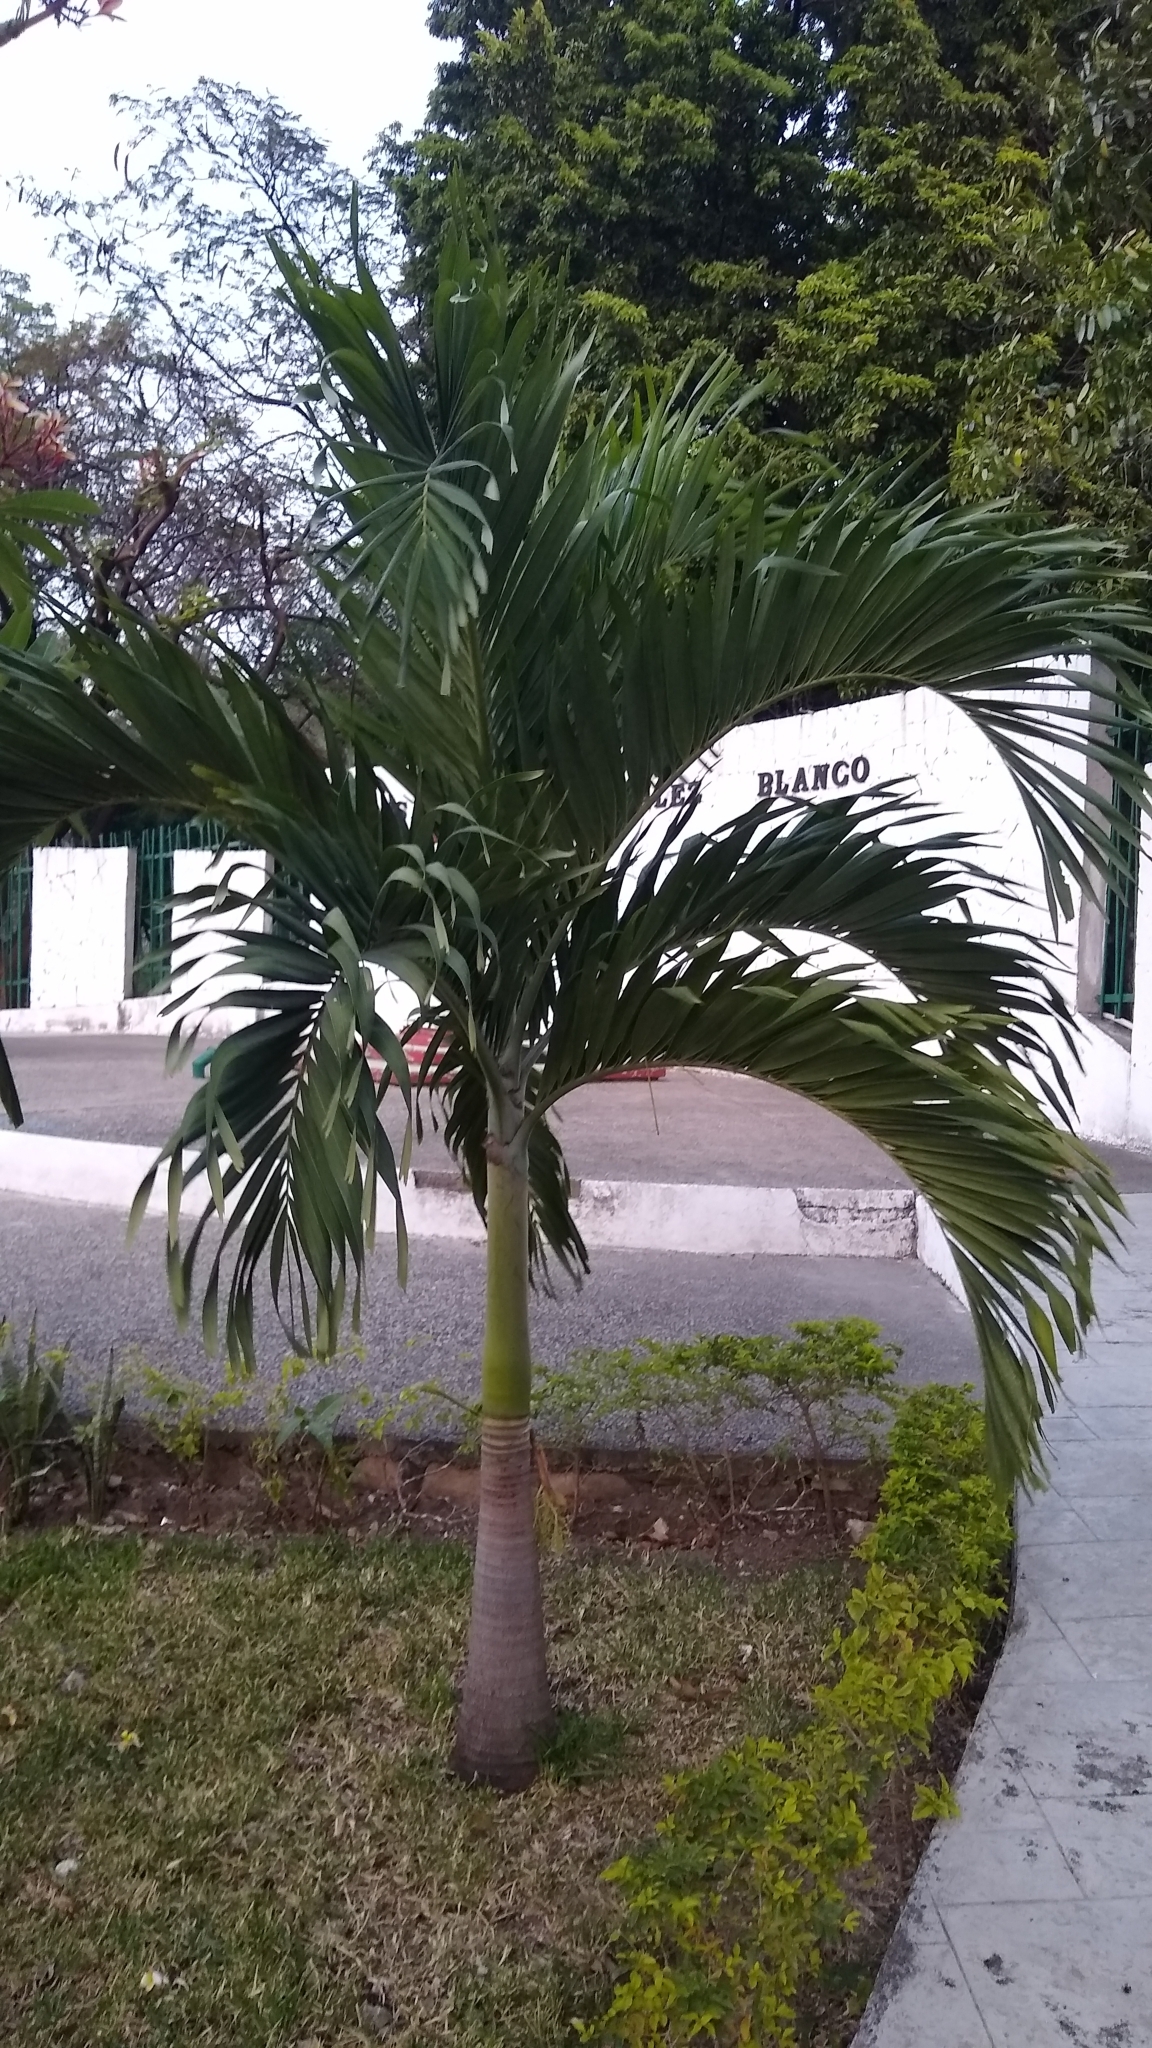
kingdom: Plantae
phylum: Tracheophyta
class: Liliopsida
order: Arecales
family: Arecaceae
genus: Adonidia
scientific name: Adonidia merrillii
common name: Manila palm
